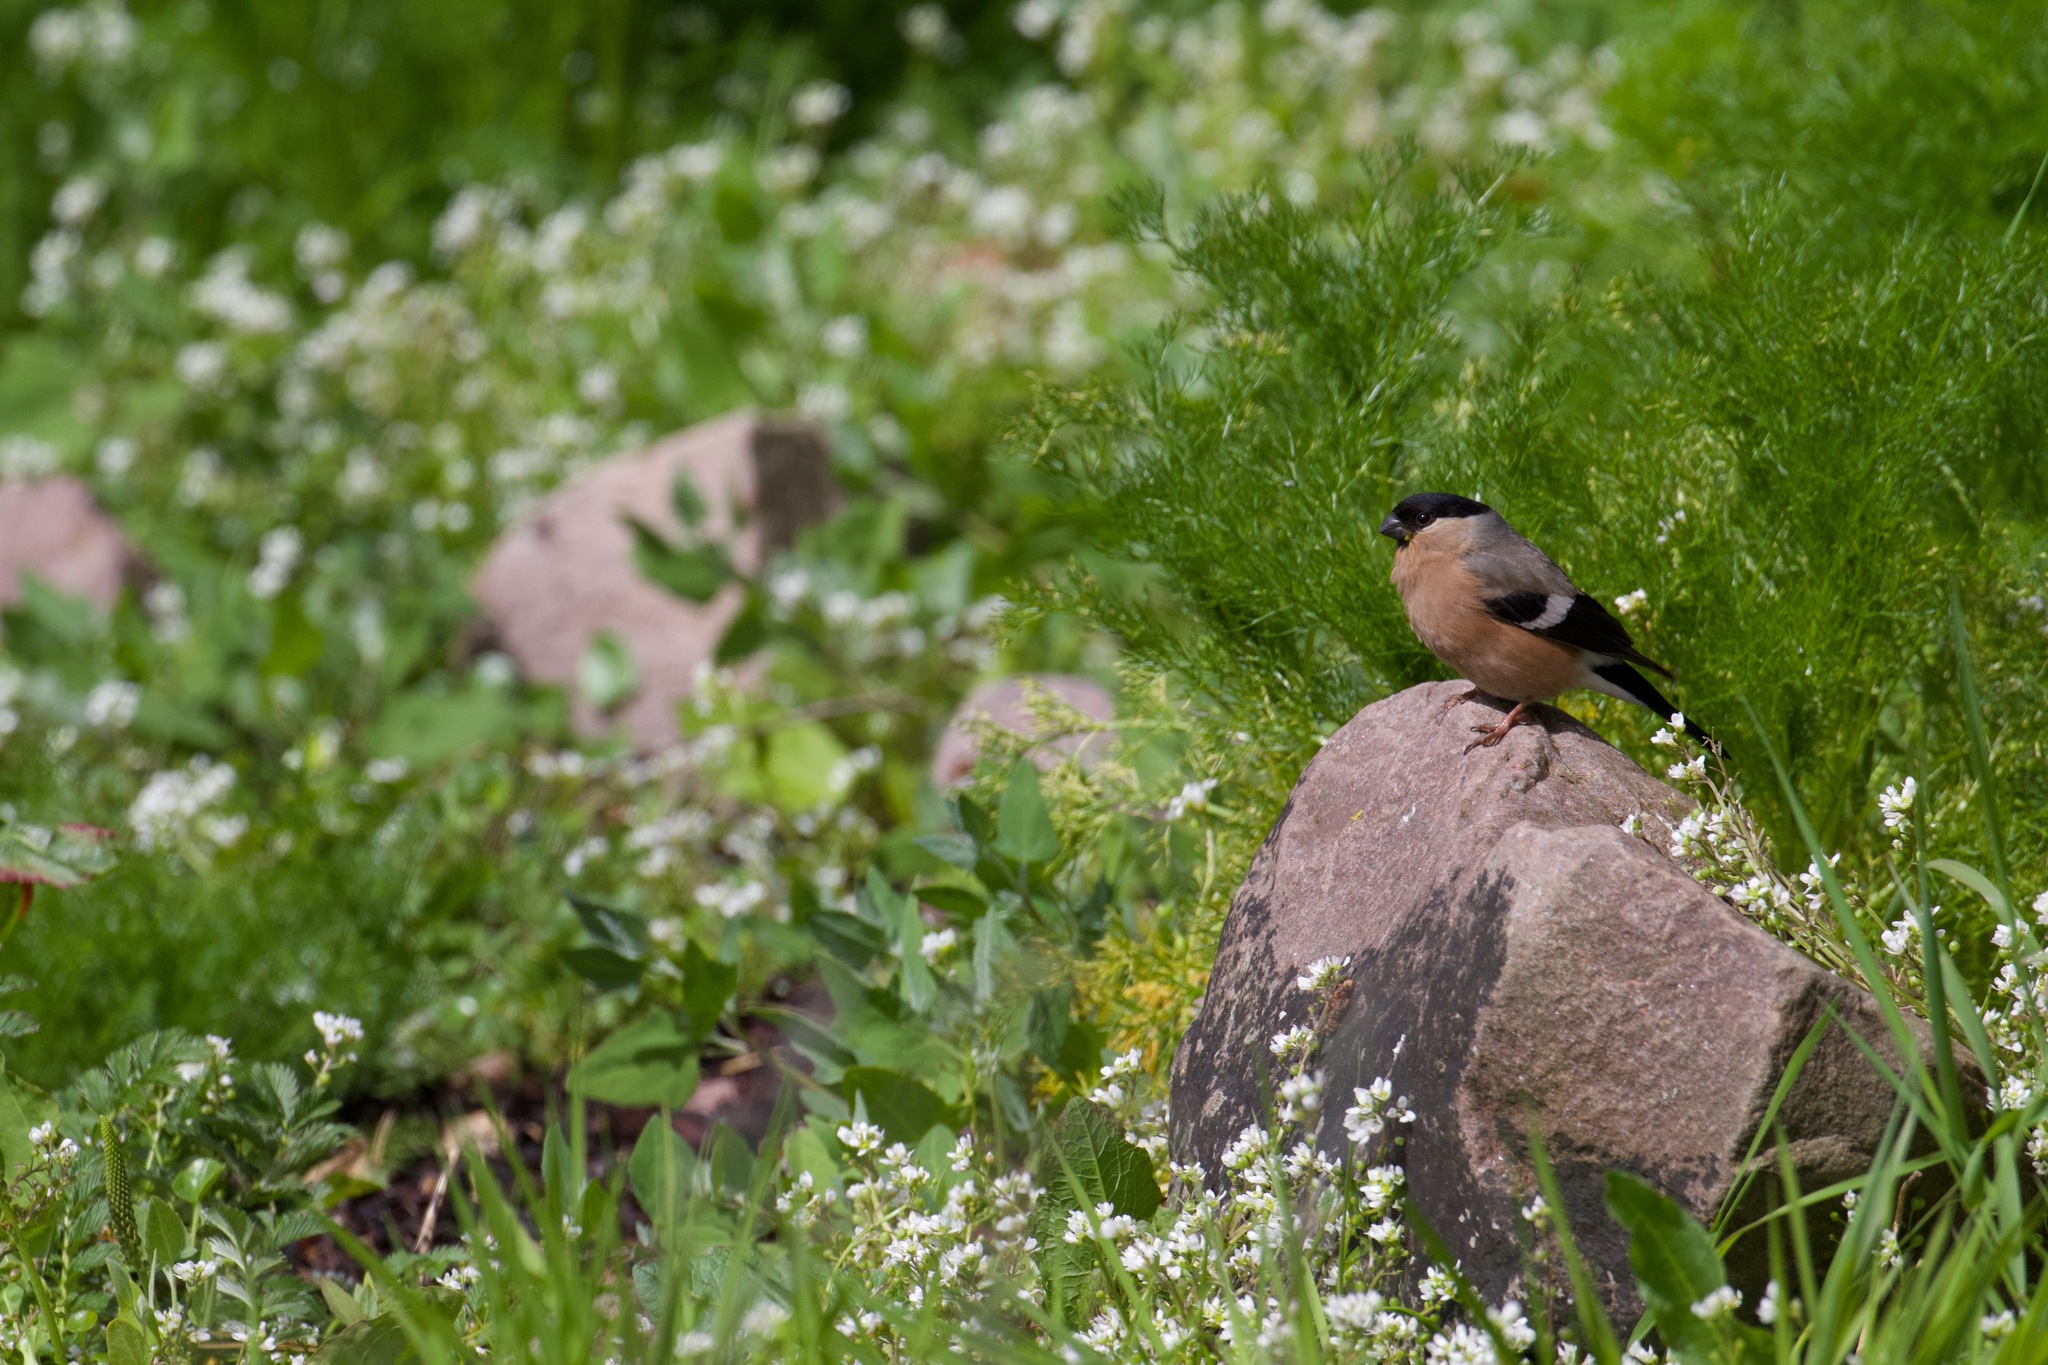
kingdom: Animalia
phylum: Chordata
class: Aves
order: Passeriformes
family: Fringillidae
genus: Pyrrhula
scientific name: Pyrrhula pyrrhula
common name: Eurasian bullfinch
